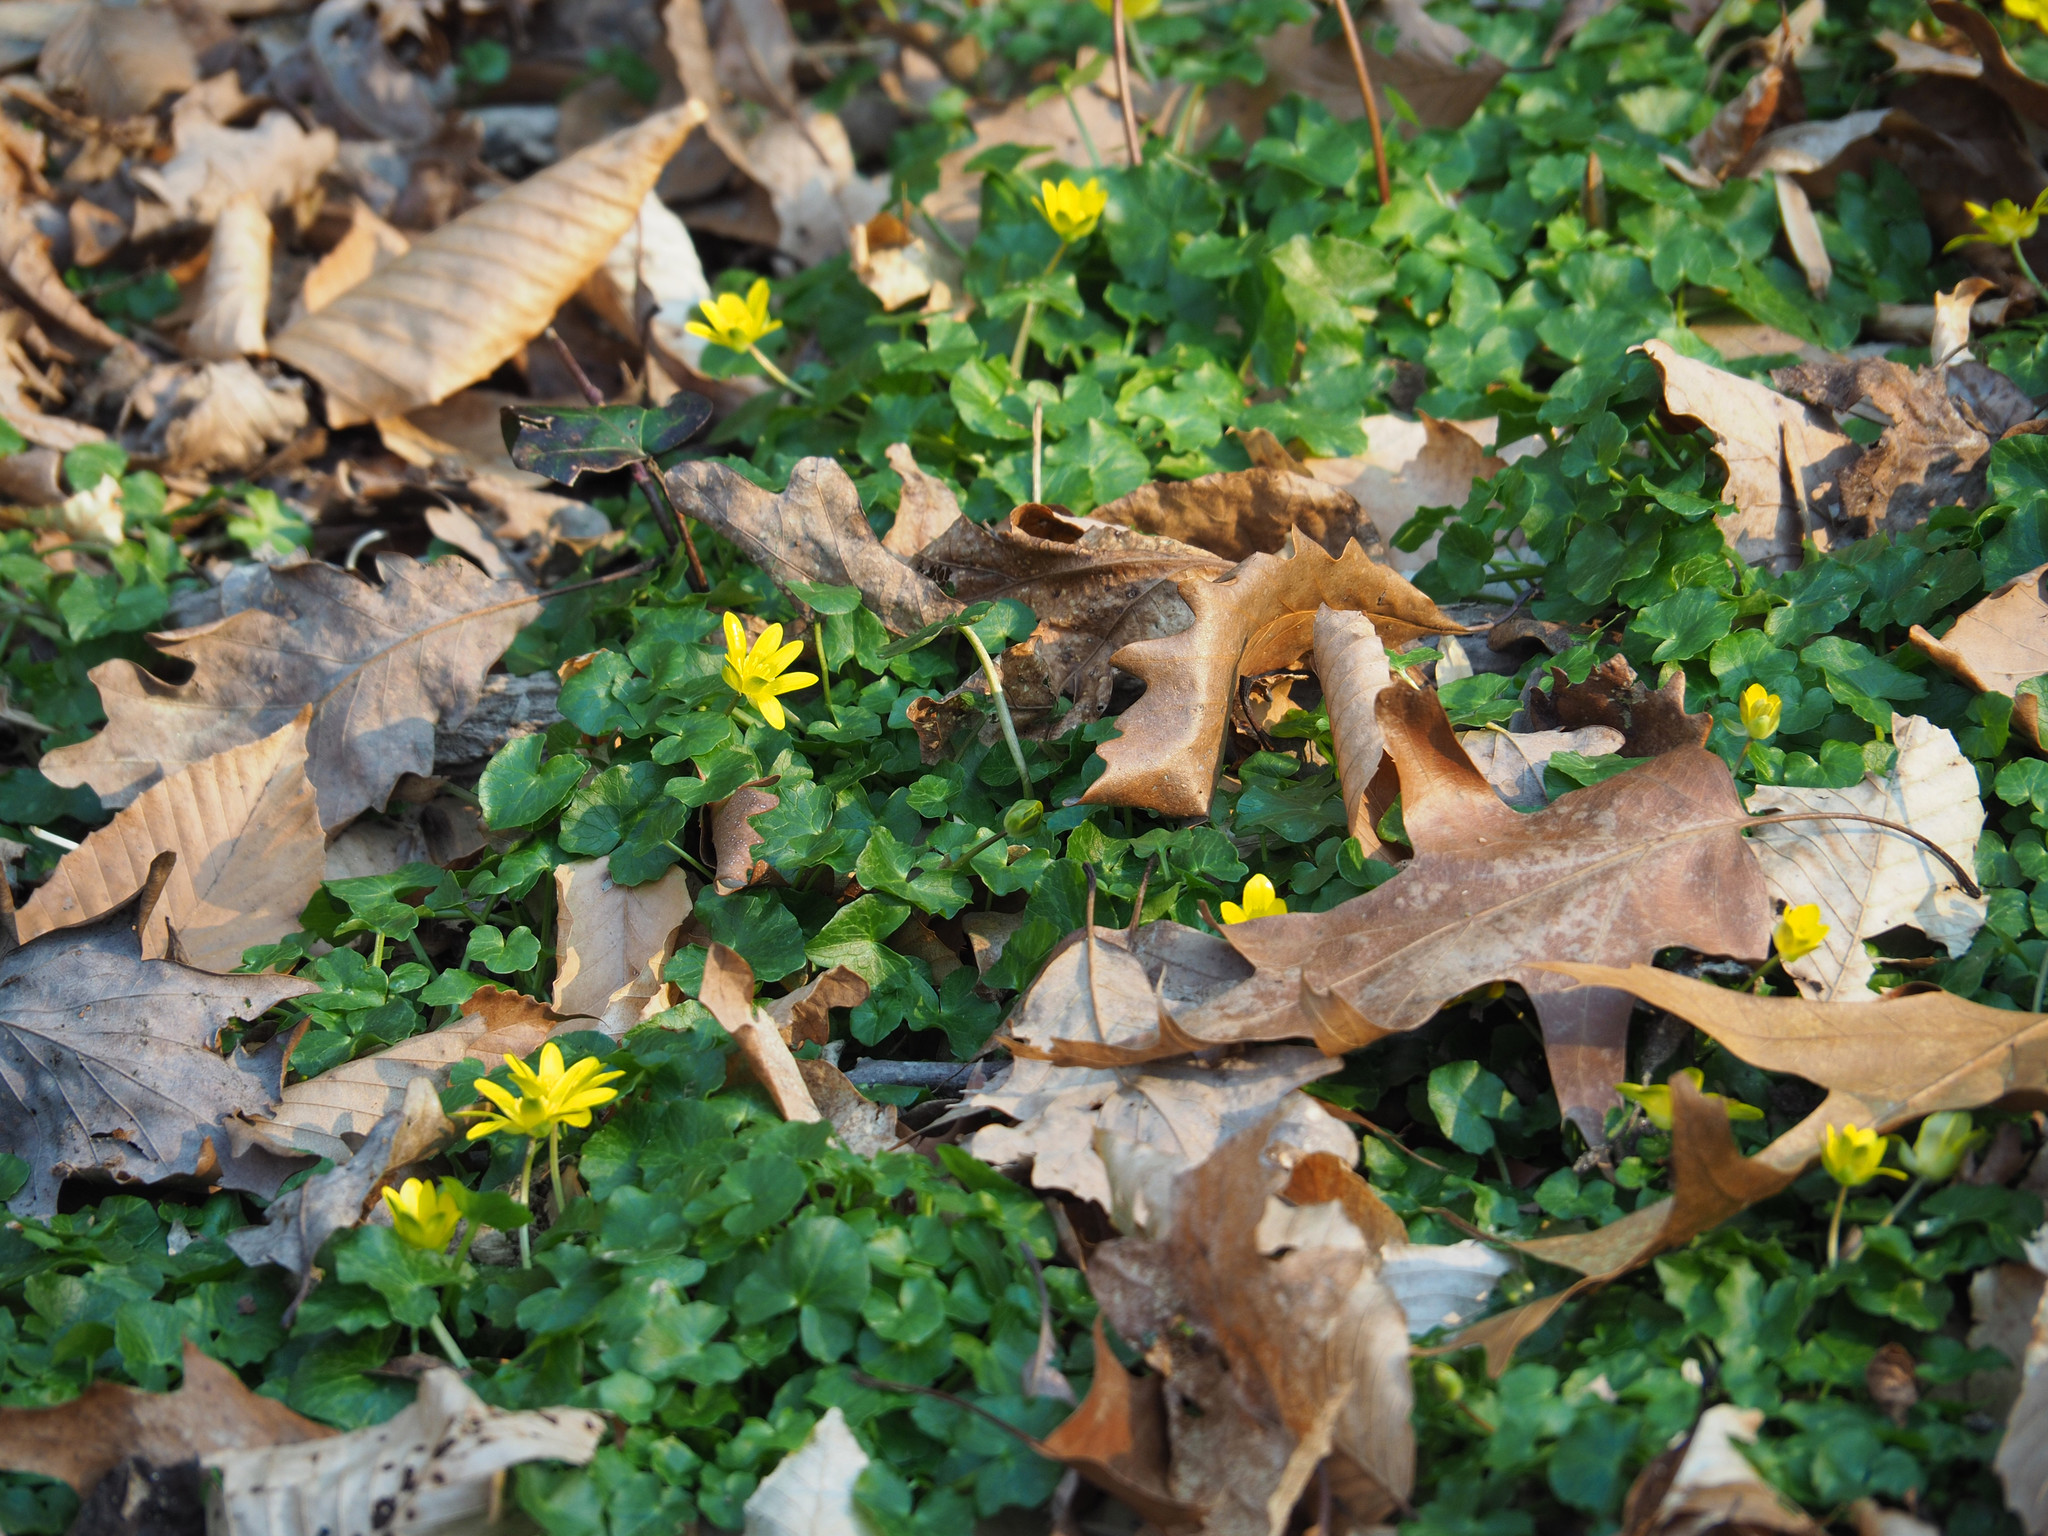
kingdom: Plantae
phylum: Tracheophyta
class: Magnoliopsida
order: Ranunculales
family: Ranunculaceae
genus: Ficaria
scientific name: Ficaria verna
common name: Lesser celandine
